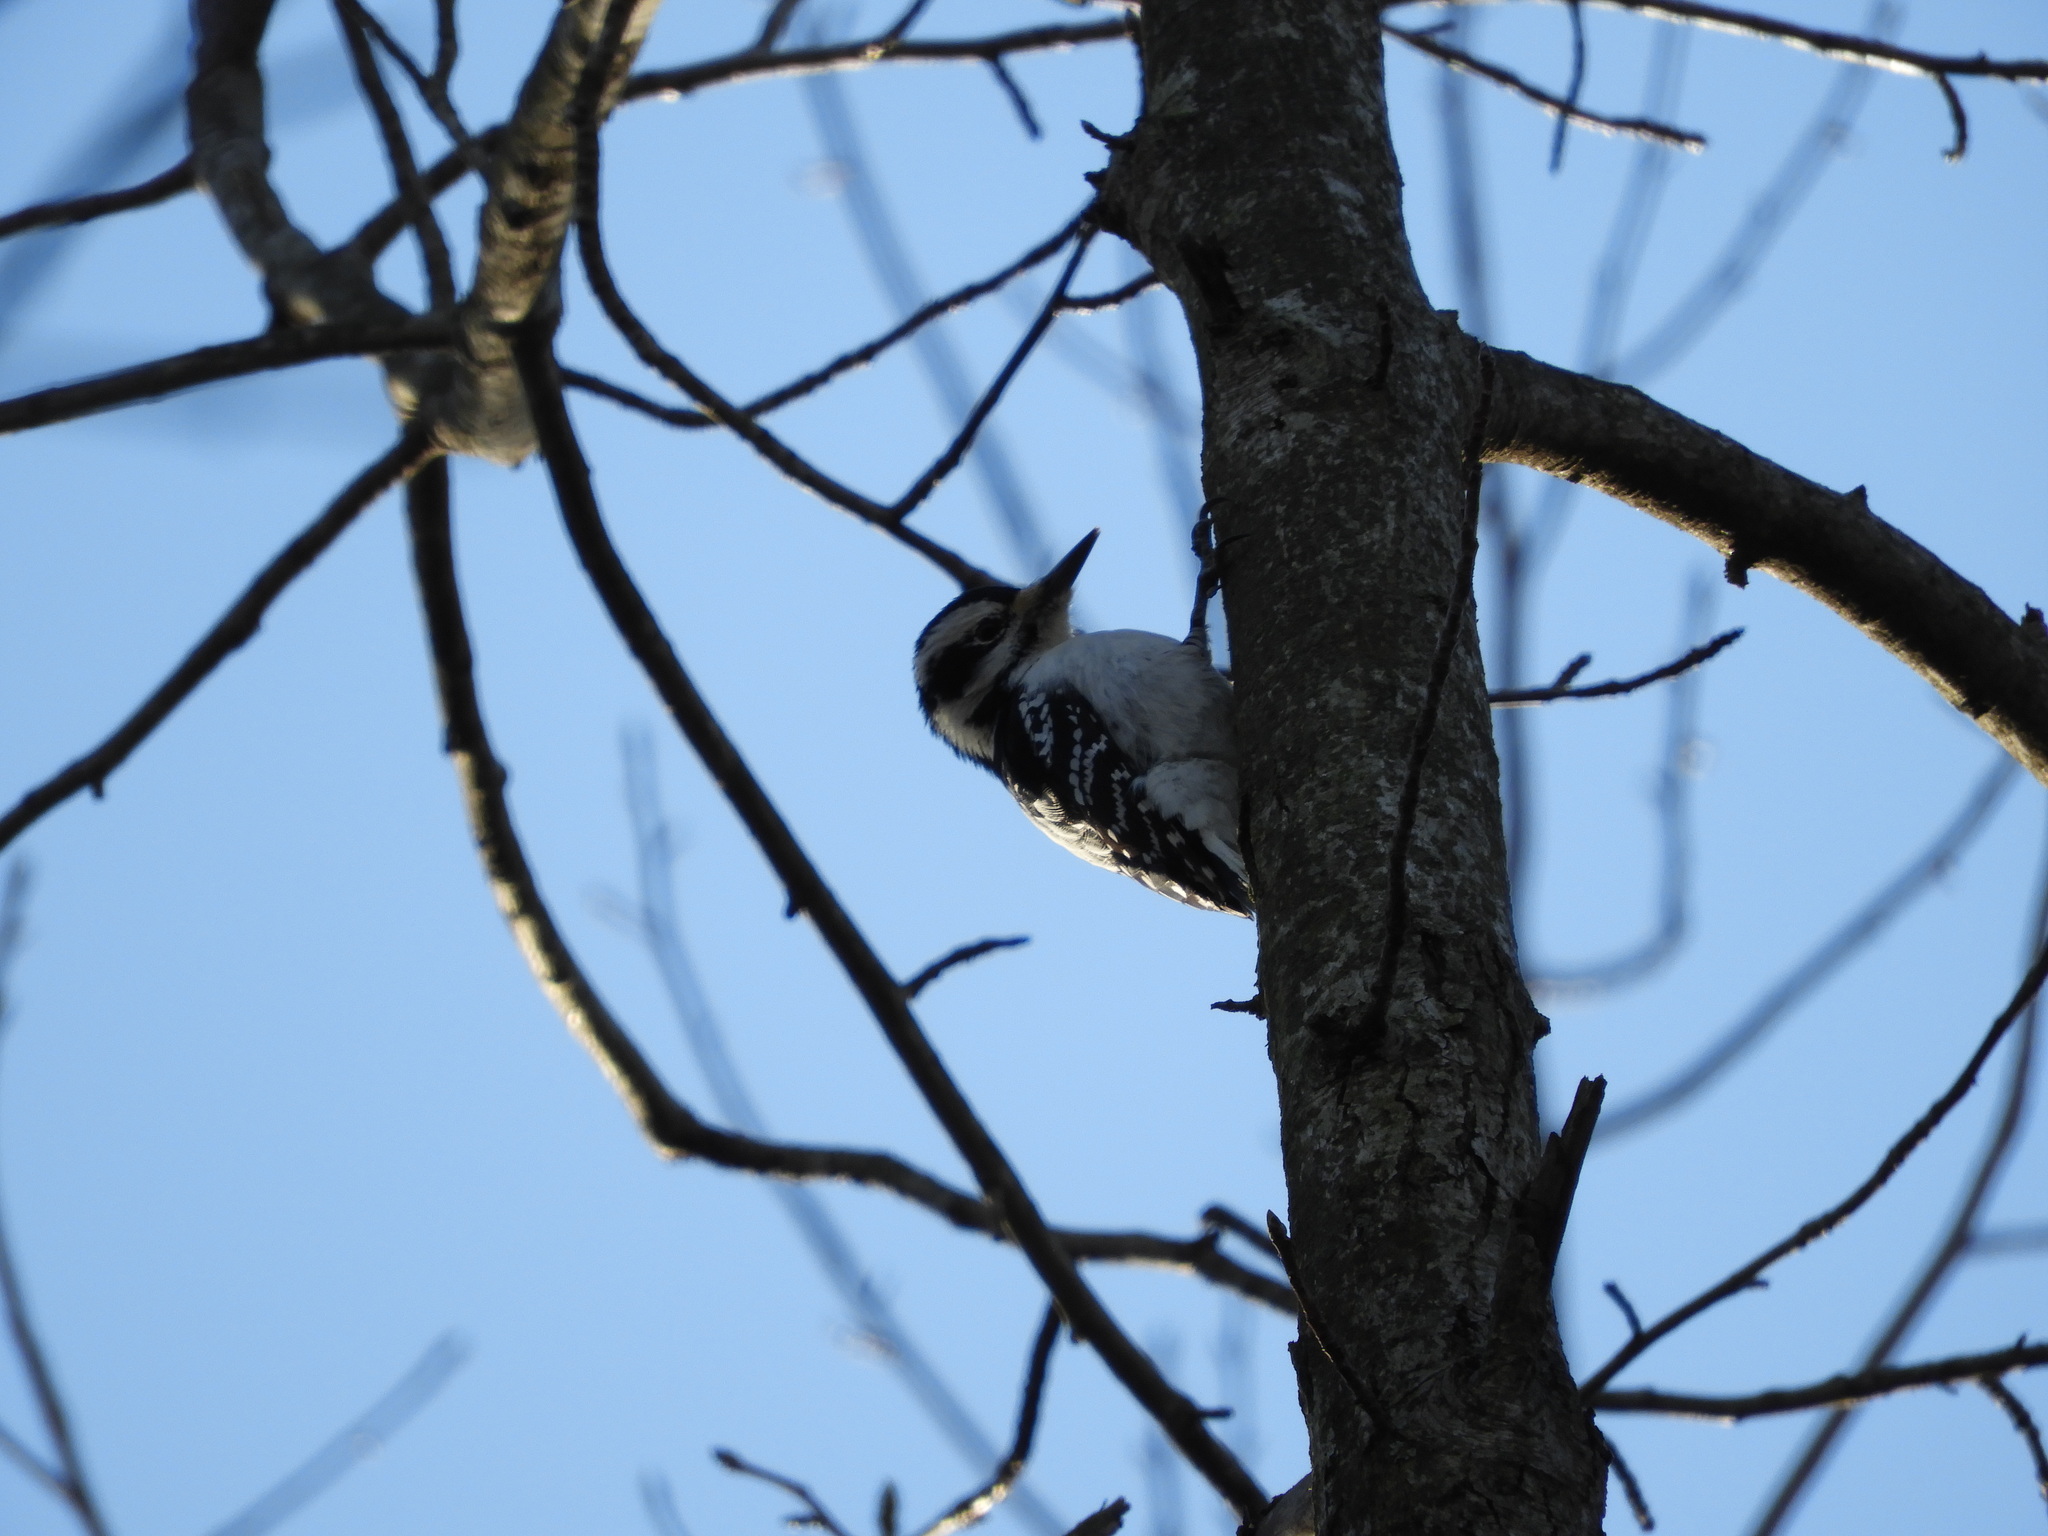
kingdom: Animalia
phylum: Chordata
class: Aves
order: Piciformes
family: Picidae
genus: Leuconotopicus
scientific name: Leuconotopicus villosus
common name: Hairy woodpecker
